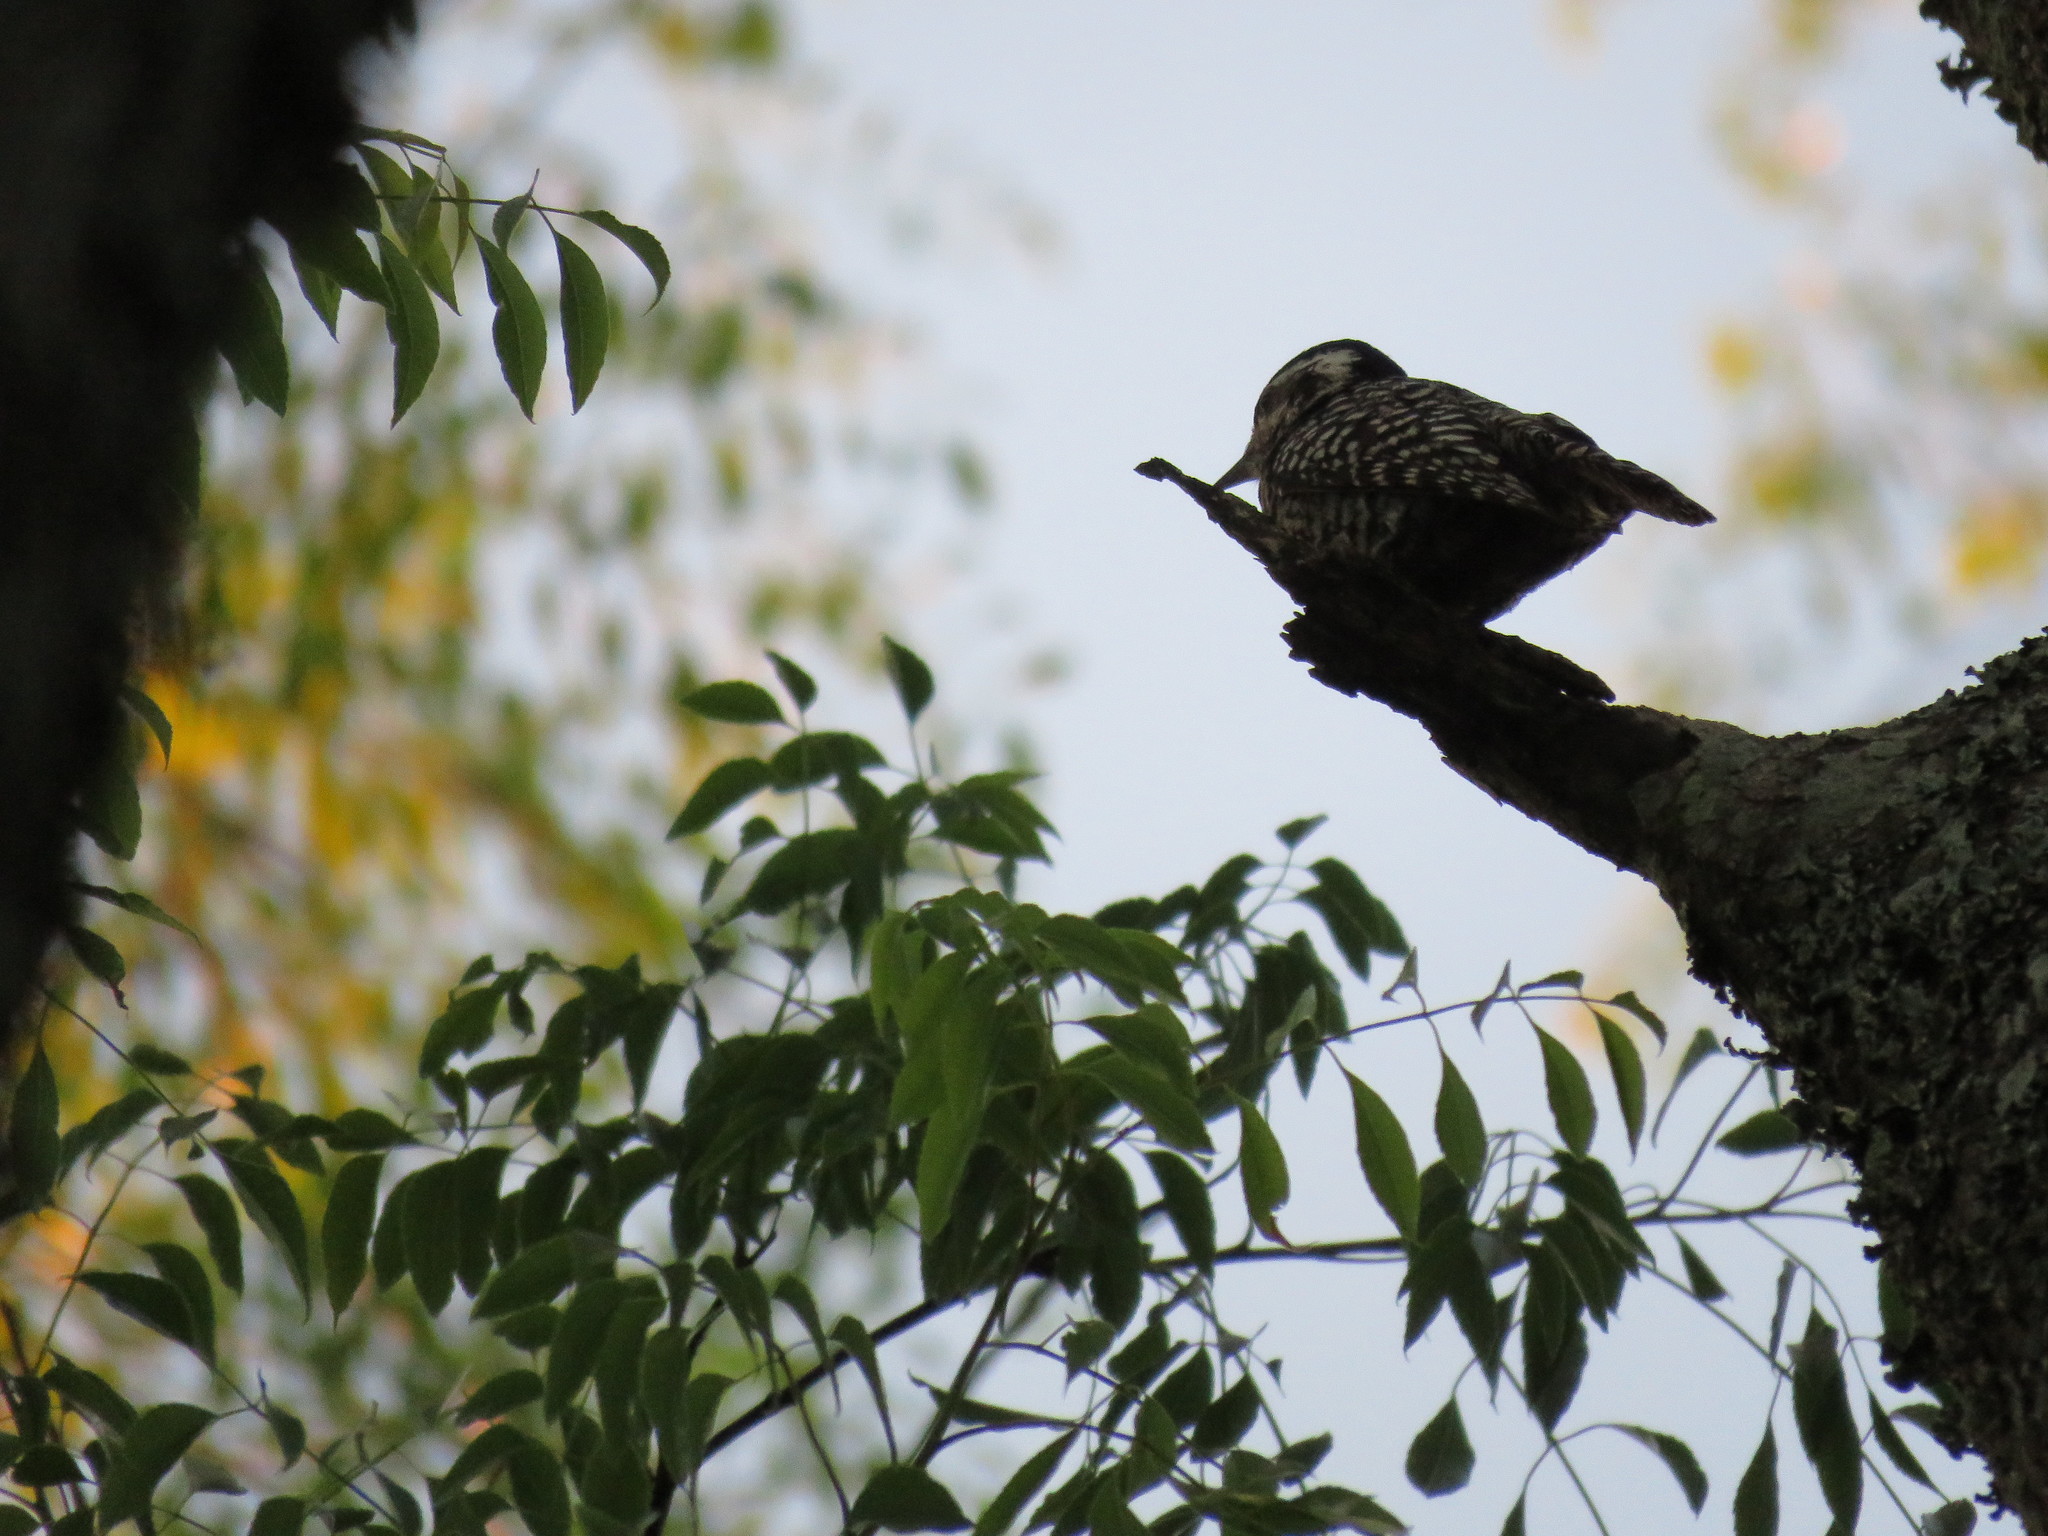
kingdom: Animalia
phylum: Chordata
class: Aves
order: Piciformes
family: Picidae
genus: Veniliornis
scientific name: Veniliornis mixtus
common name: Checkered woodpecker
